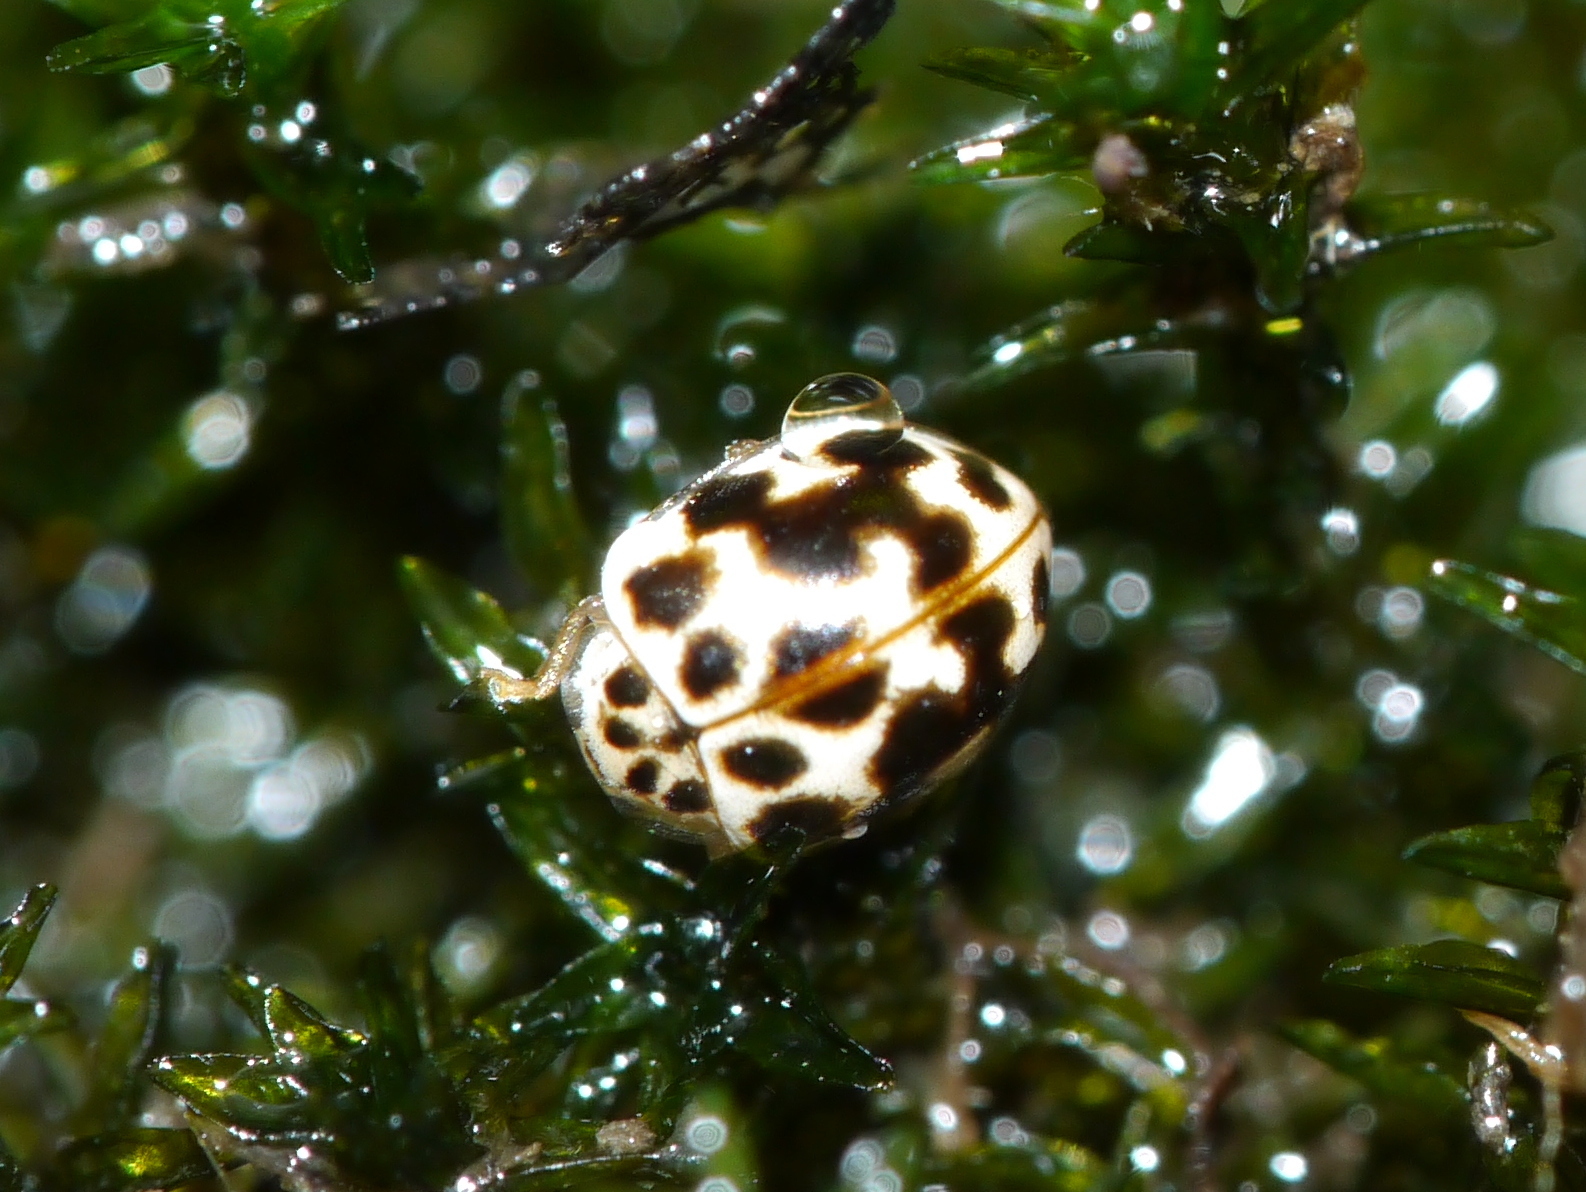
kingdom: Animalia
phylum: Arthropoda
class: Insecta
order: Coleoptera
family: Coccinellidae
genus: Psyllobora
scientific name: Psyllobora vigintimaculata
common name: Ladybird beetle
